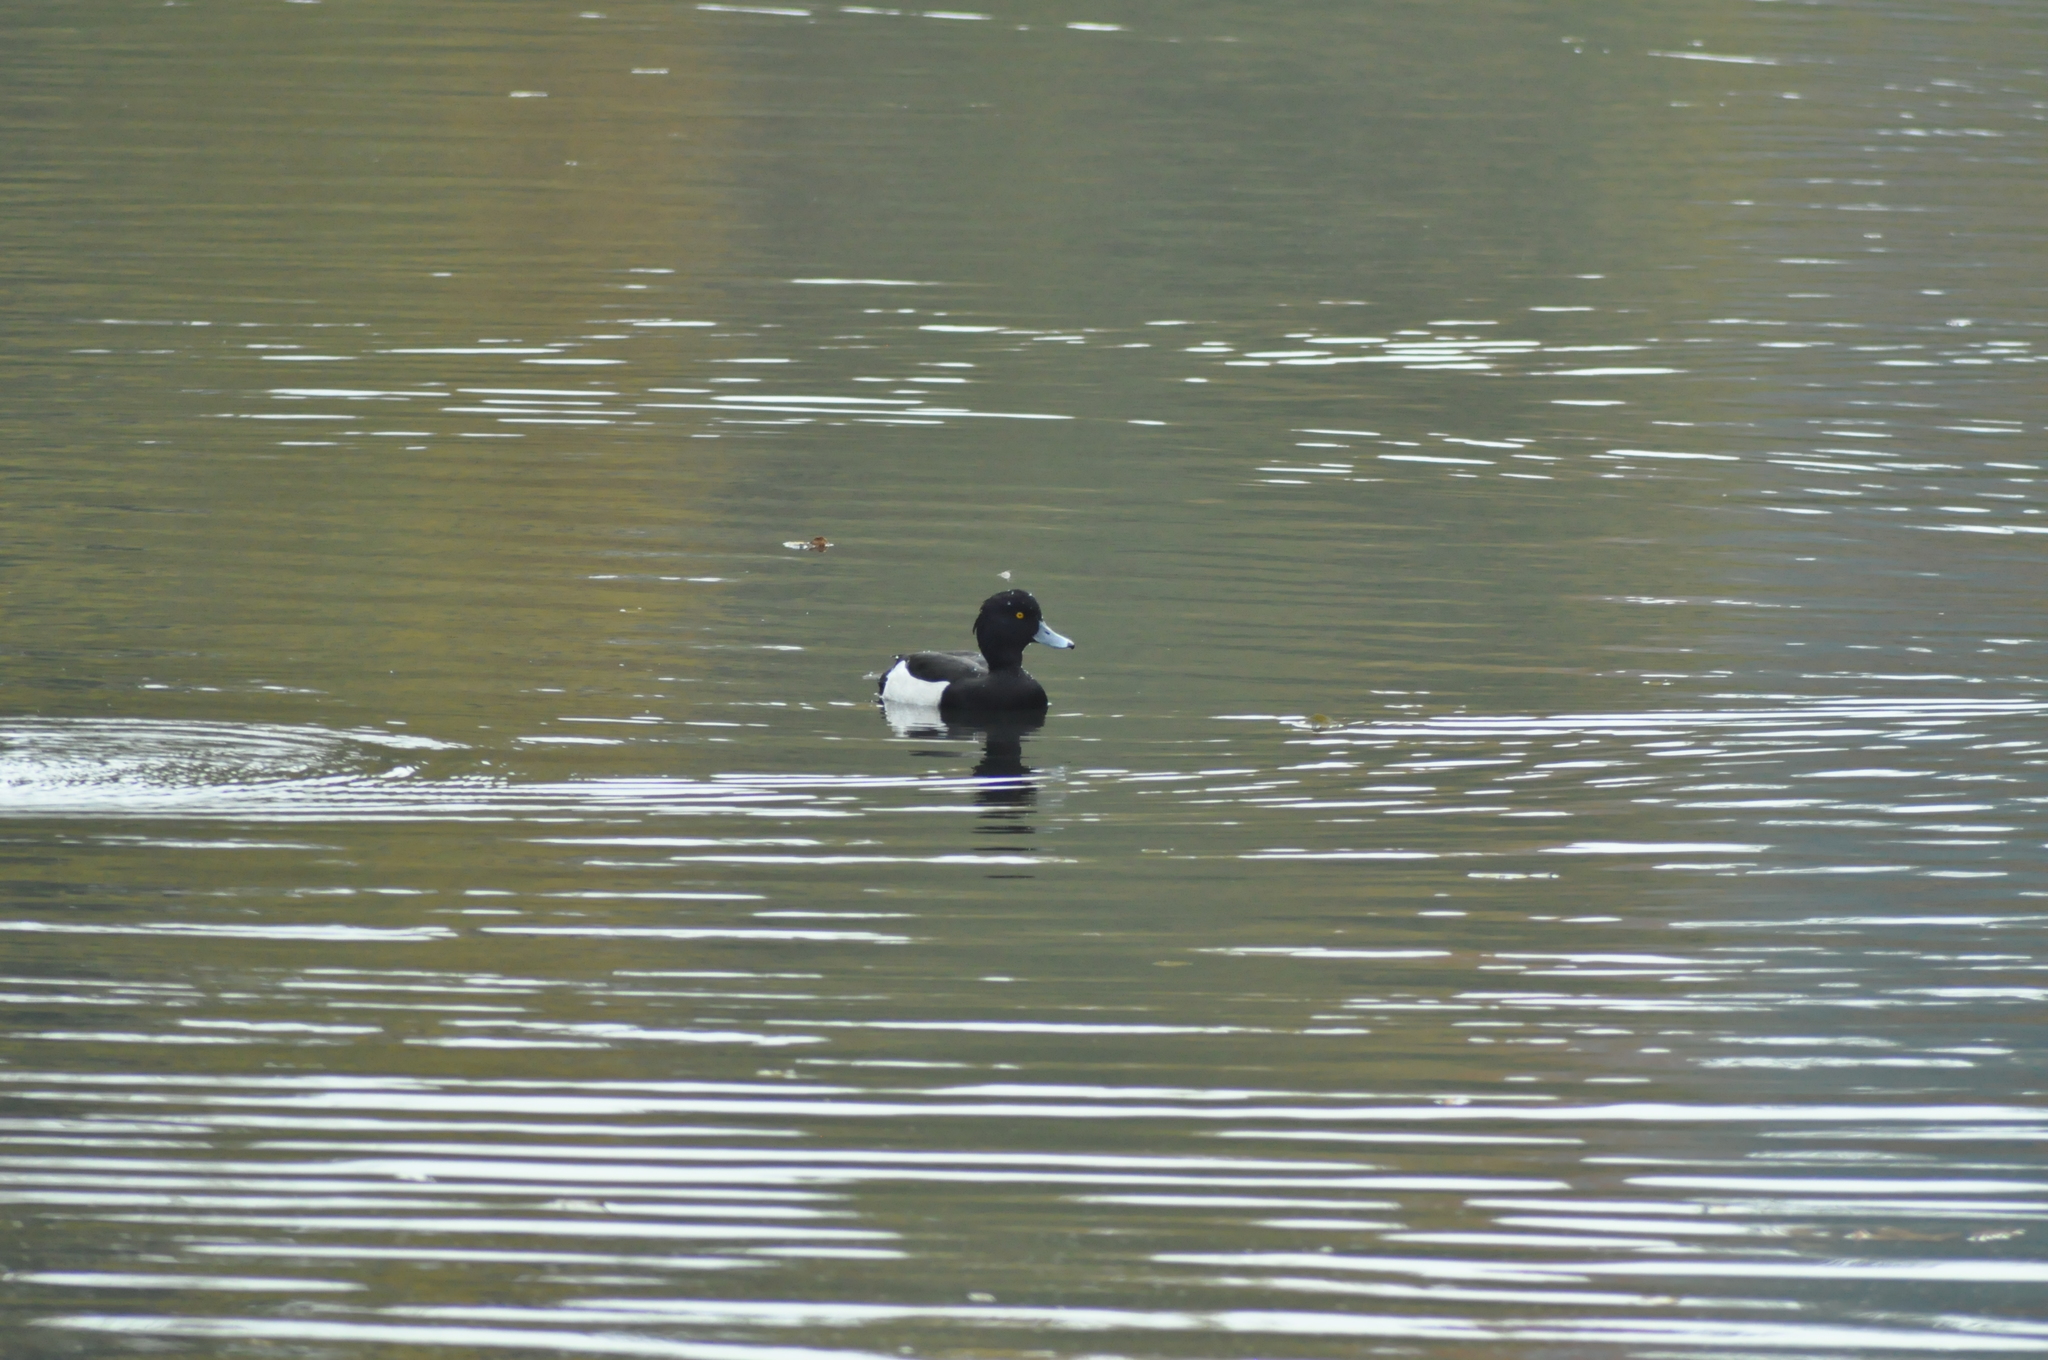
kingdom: Animalia
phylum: Chordata
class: Aves
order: Anseriformes
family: Anatidae
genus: Aythya
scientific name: Aythya fuligula
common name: Tufted duck
